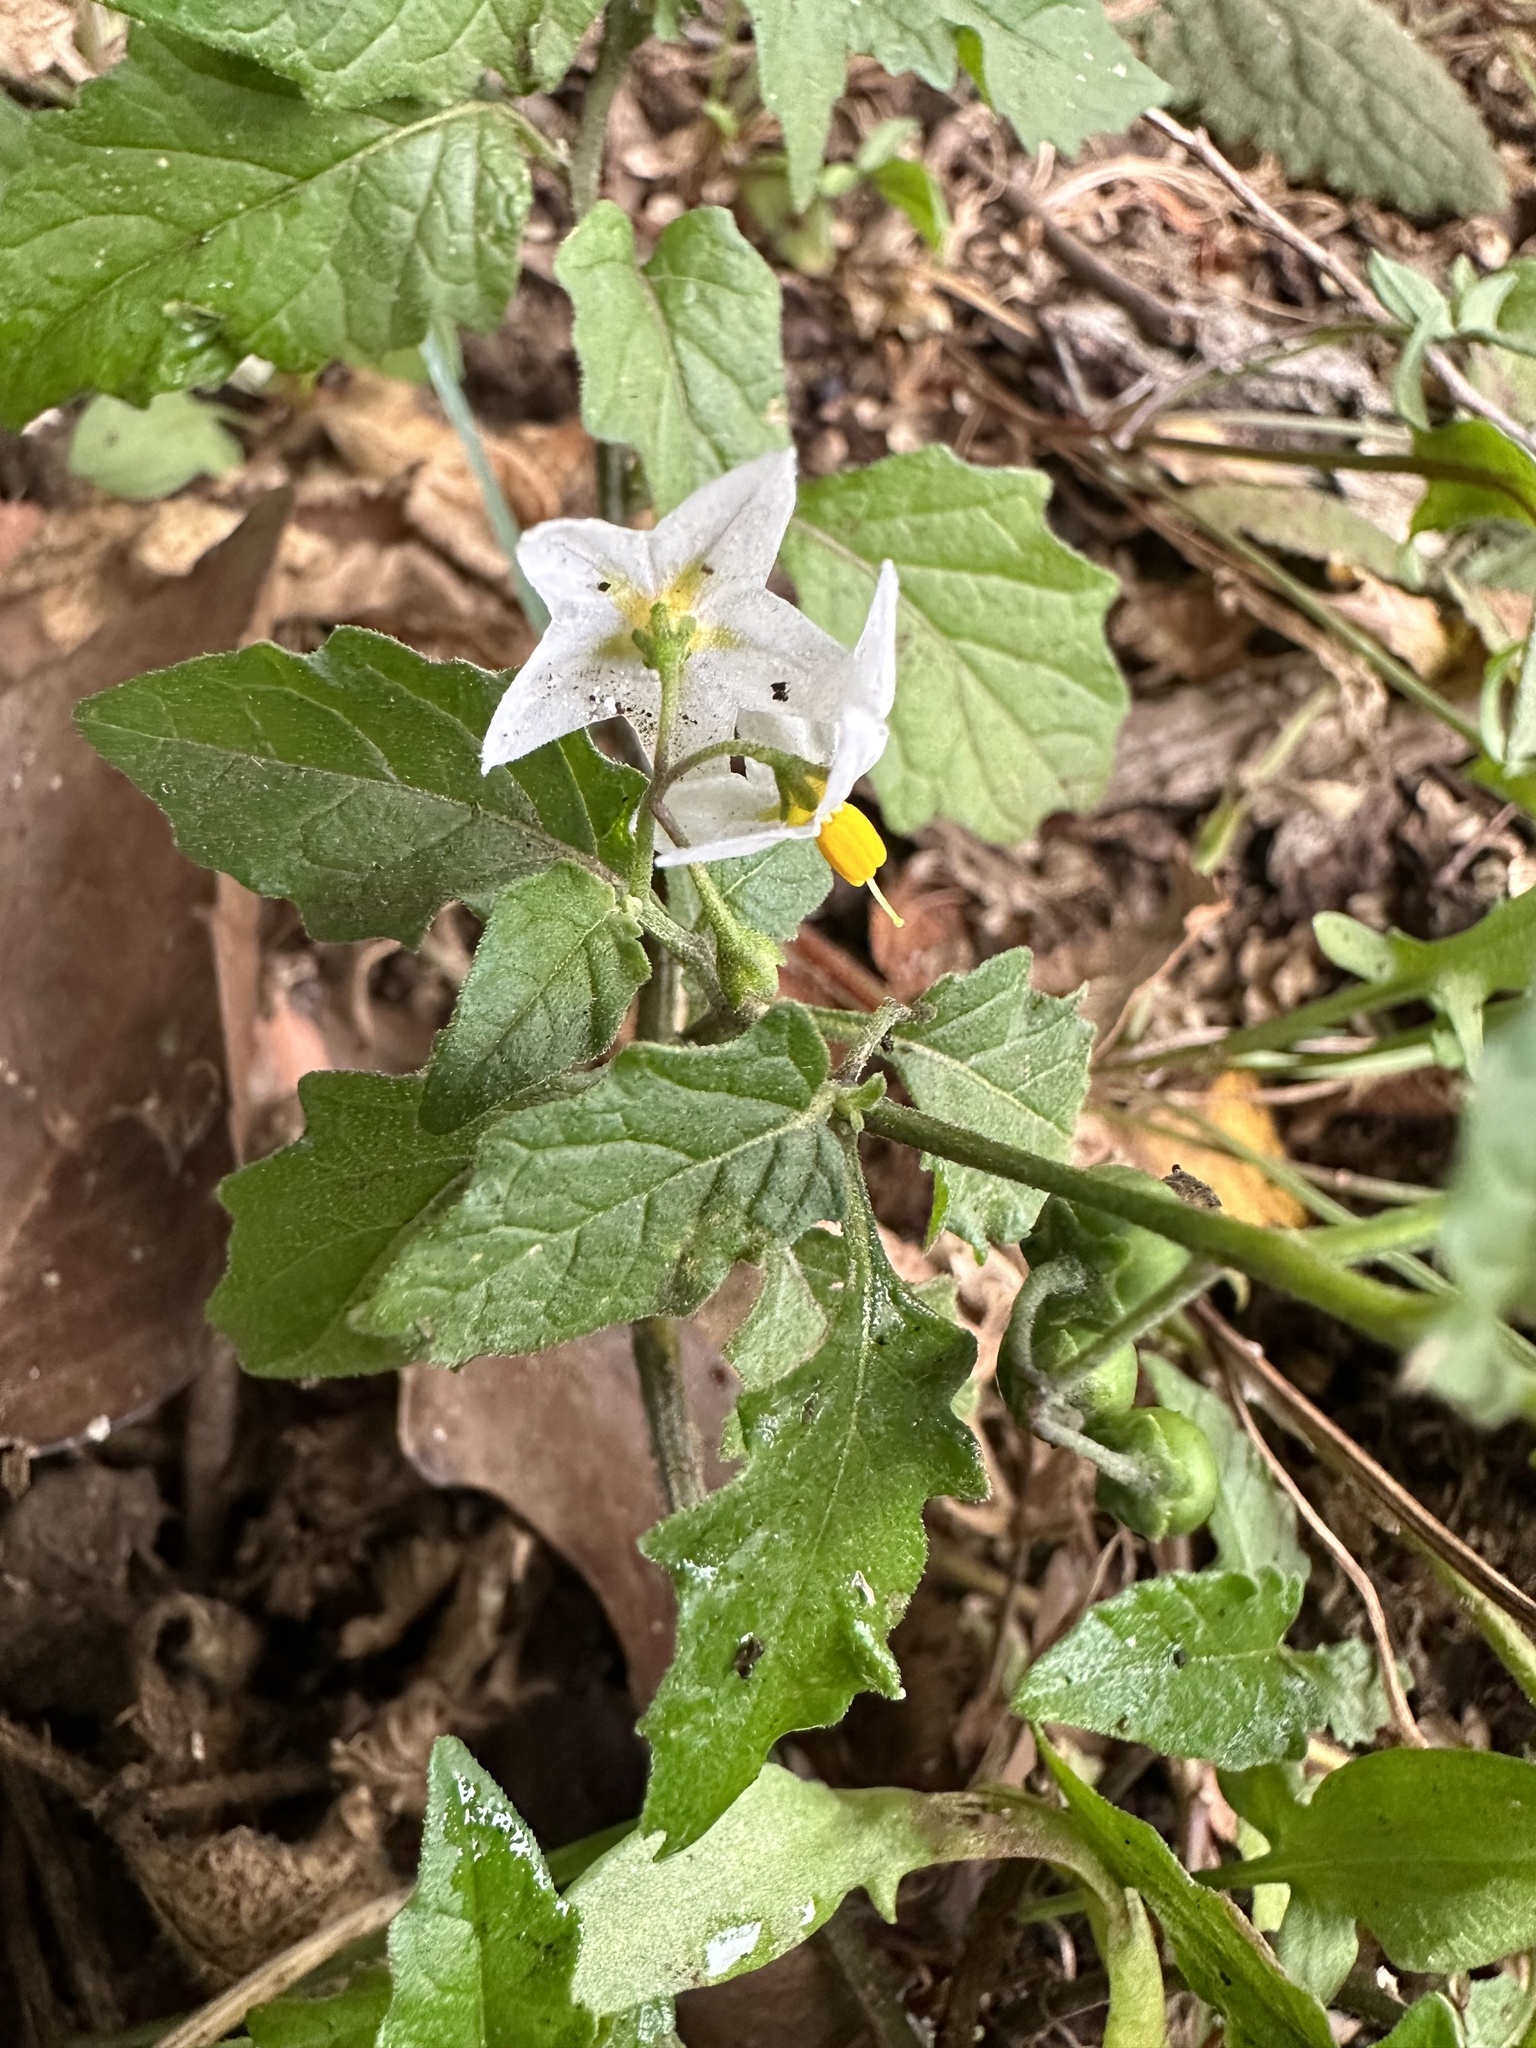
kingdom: Plantae
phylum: Tracheophyta
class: Magnoliopsida
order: Solanales
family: Solanaceae
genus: Solanum
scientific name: Solanum furcatum
